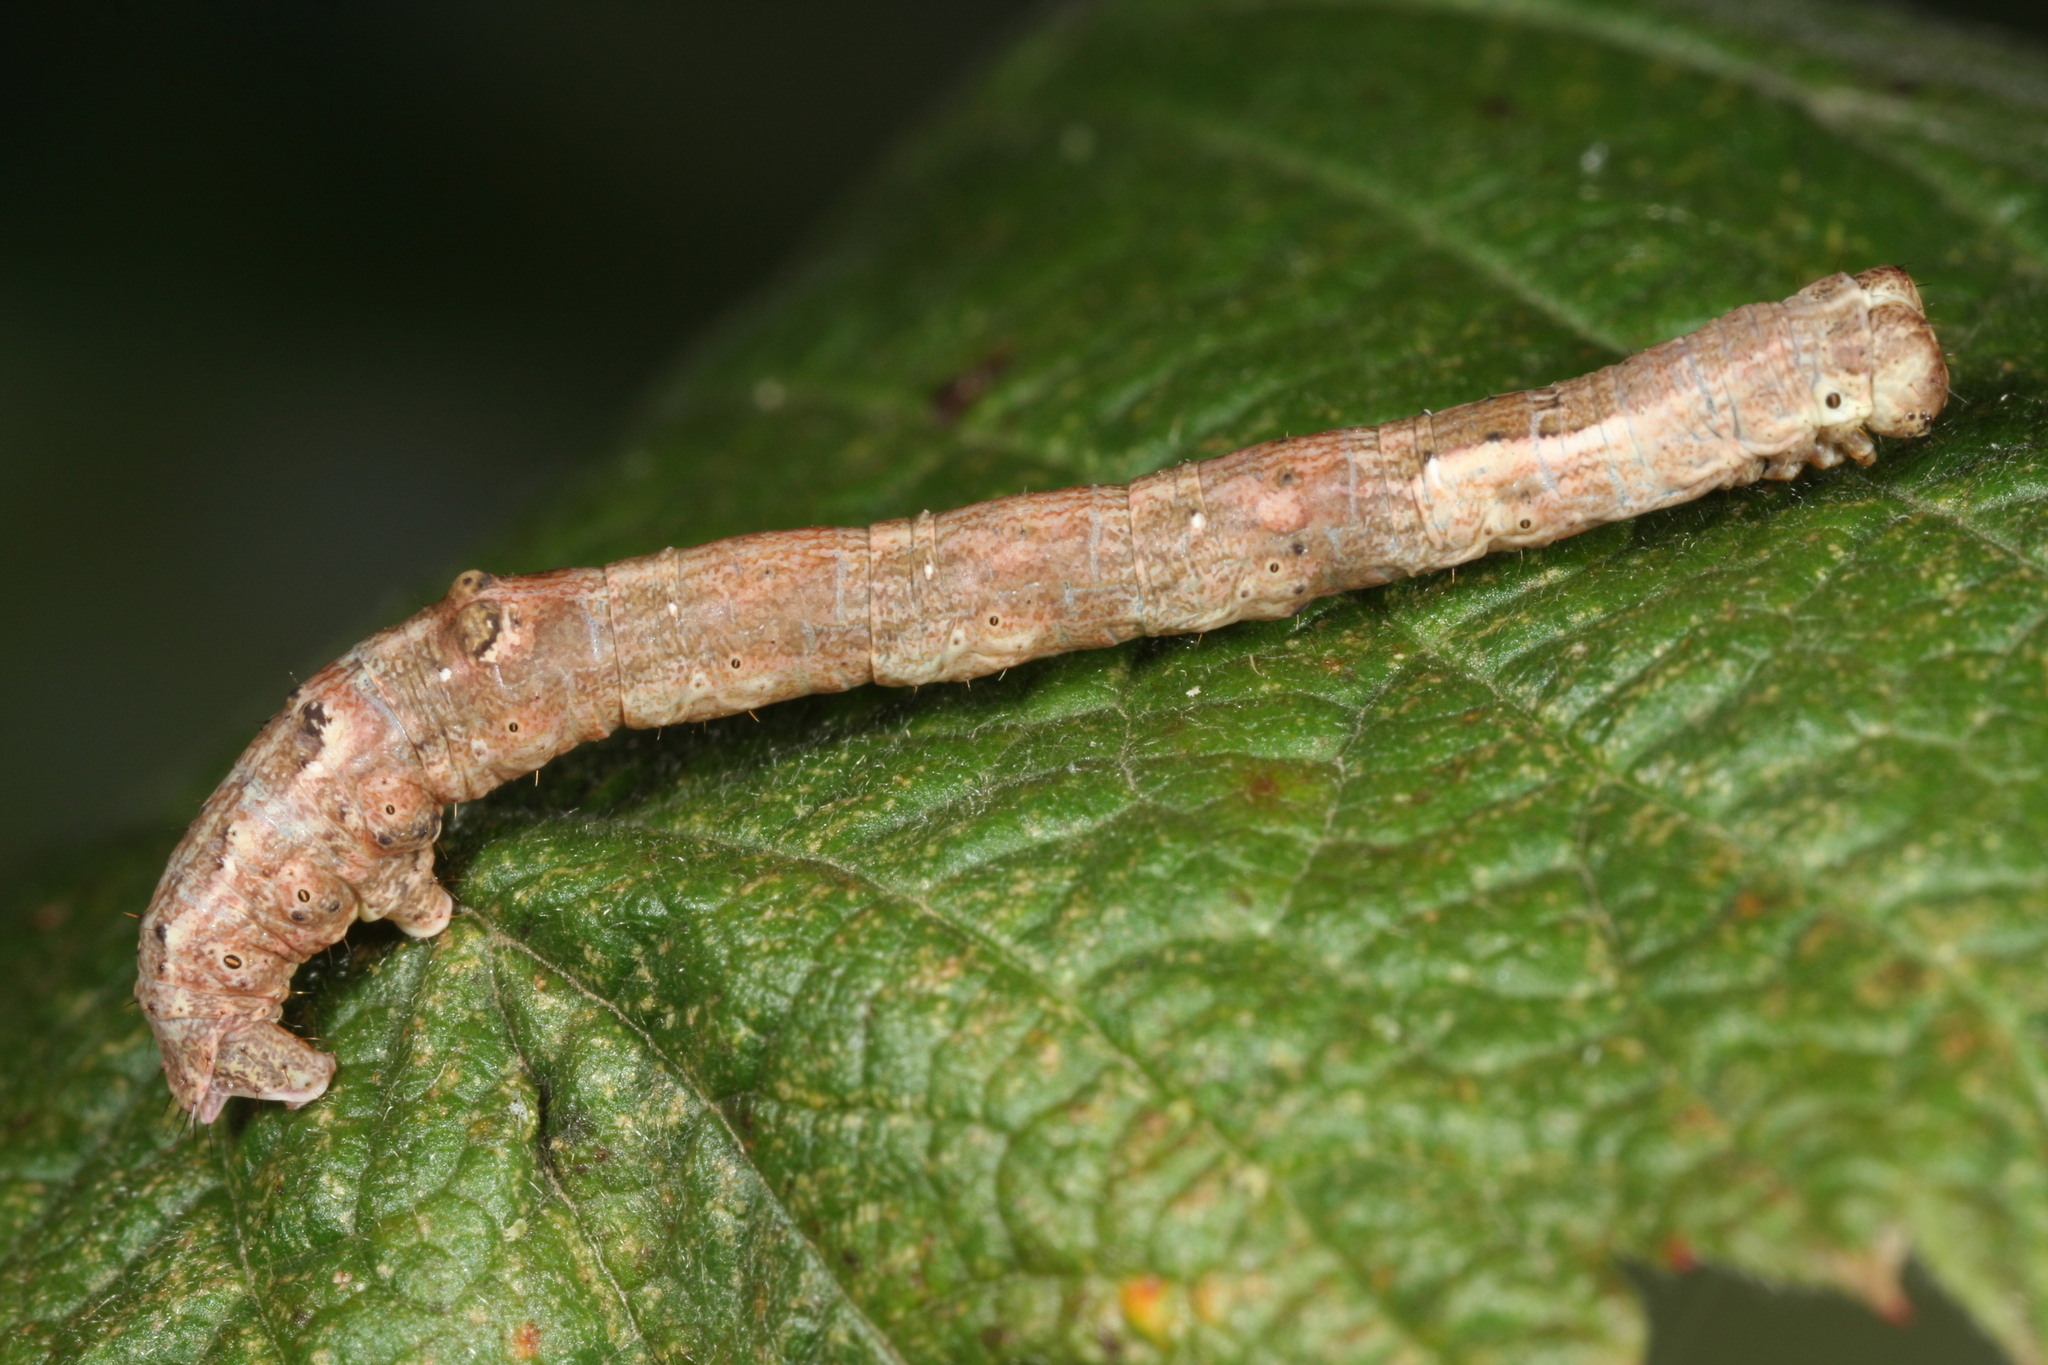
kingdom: Animalia
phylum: Arthropoda
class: Insecta
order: Lepidoptera
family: Geometridae
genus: Plagodis
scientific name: Plagodis pulveraria
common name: Barred umber
